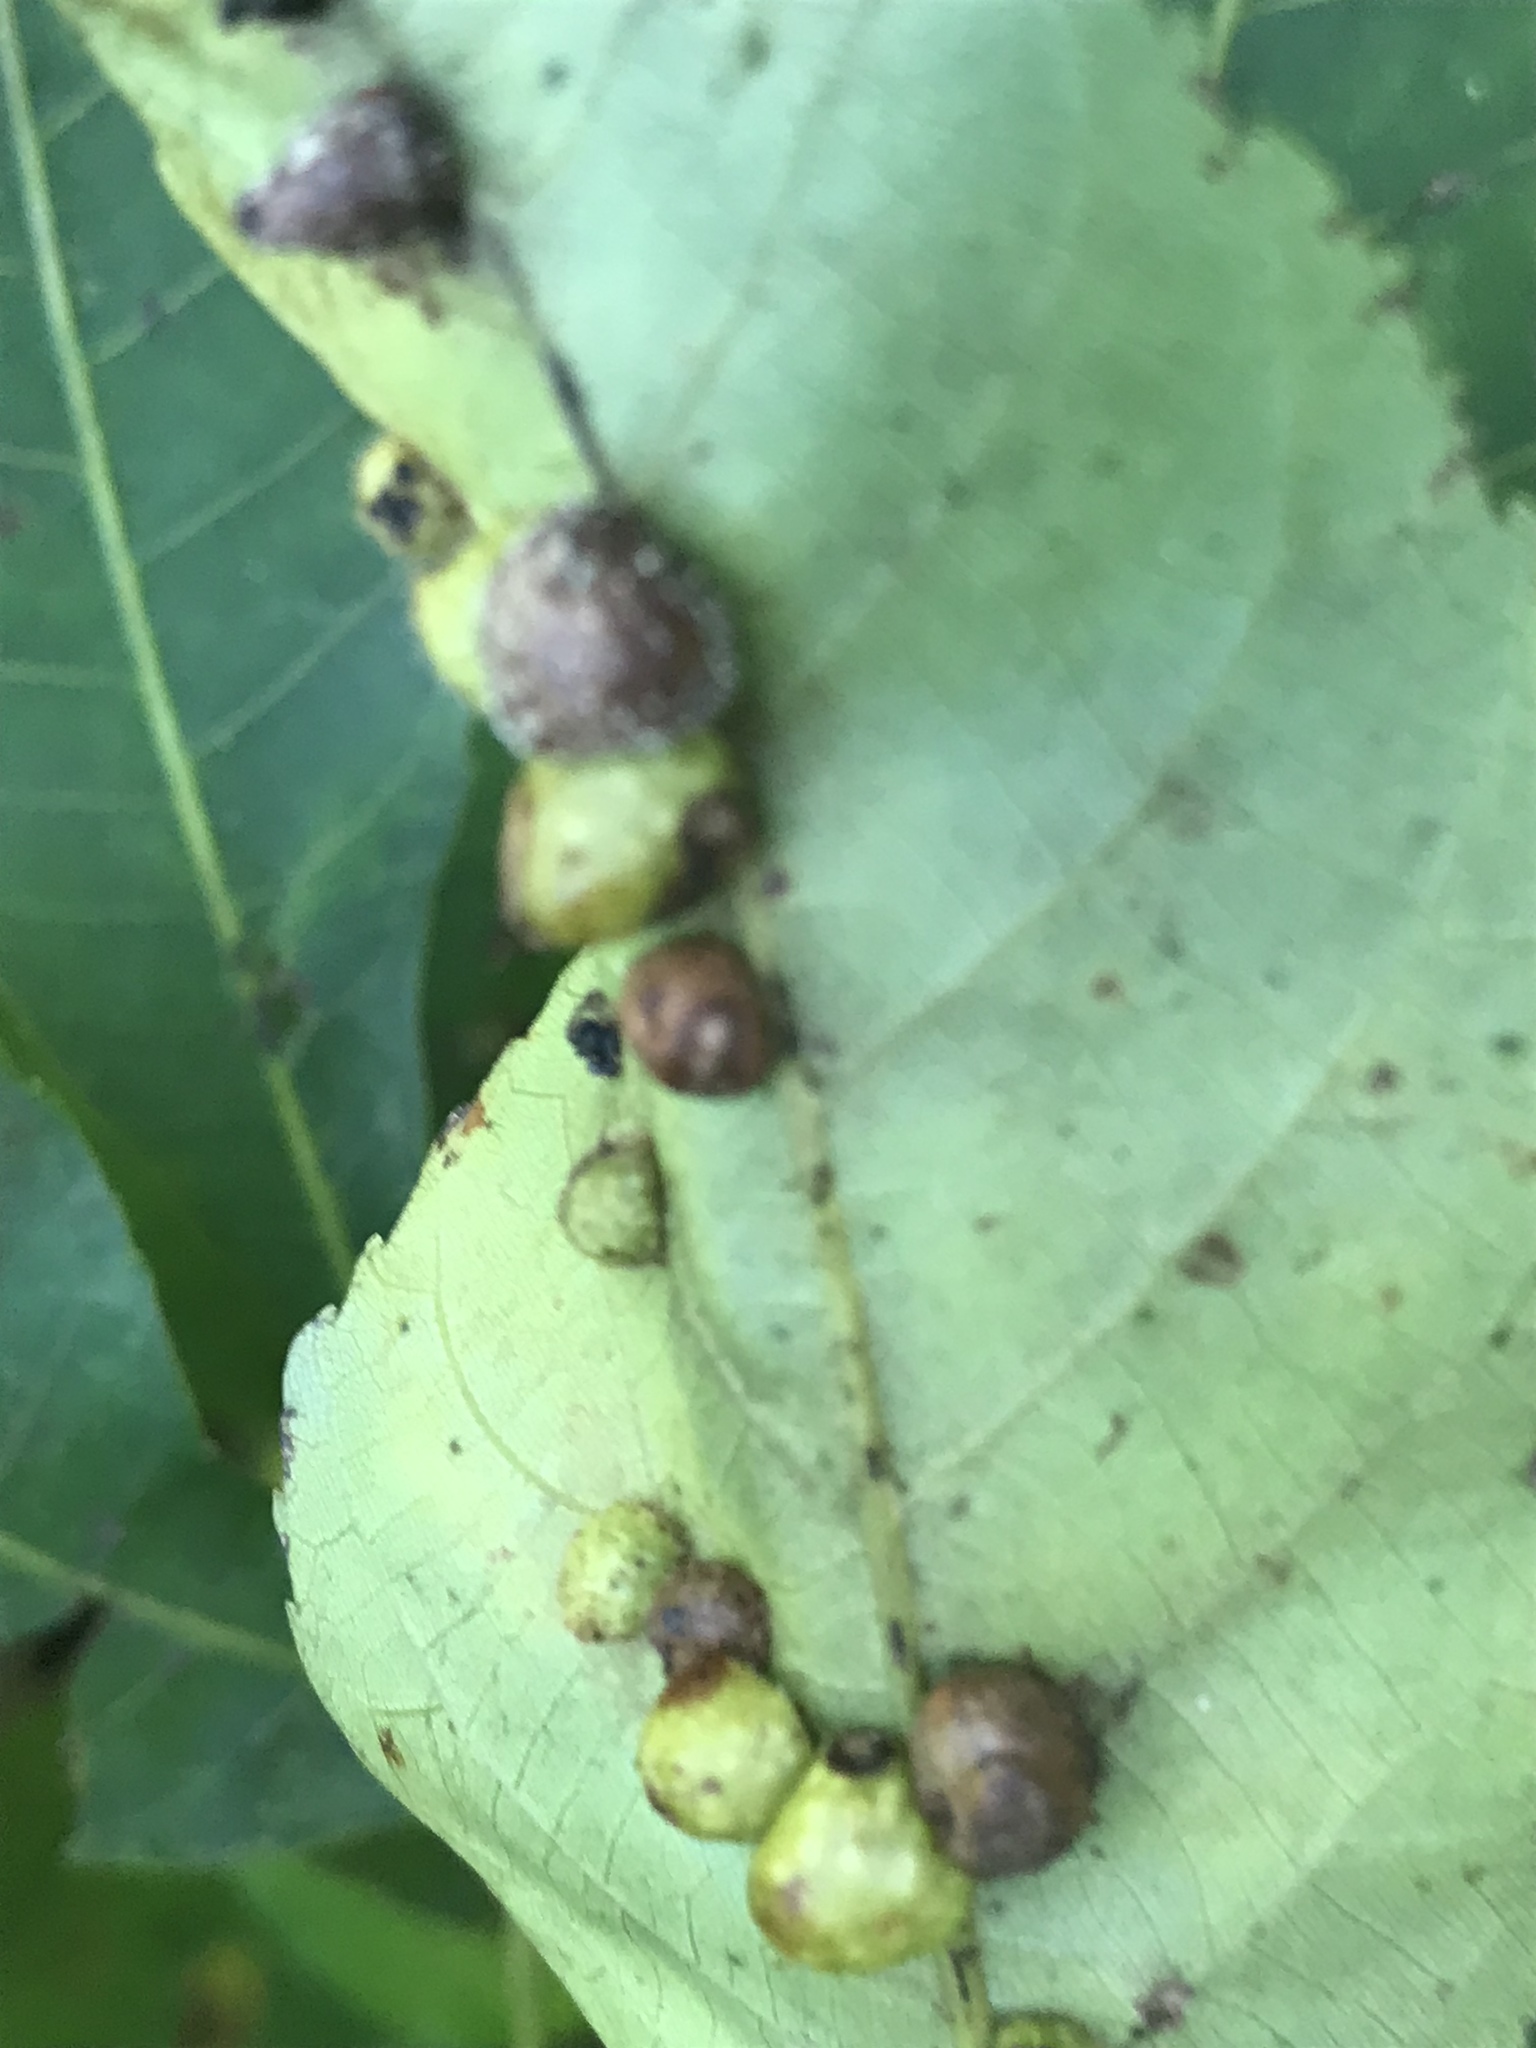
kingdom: Animalia
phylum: Arthropoda
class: Insecta
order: Diptera
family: Cecidomyiidae
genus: Caryomyia
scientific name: Caryomyia tuberculata
